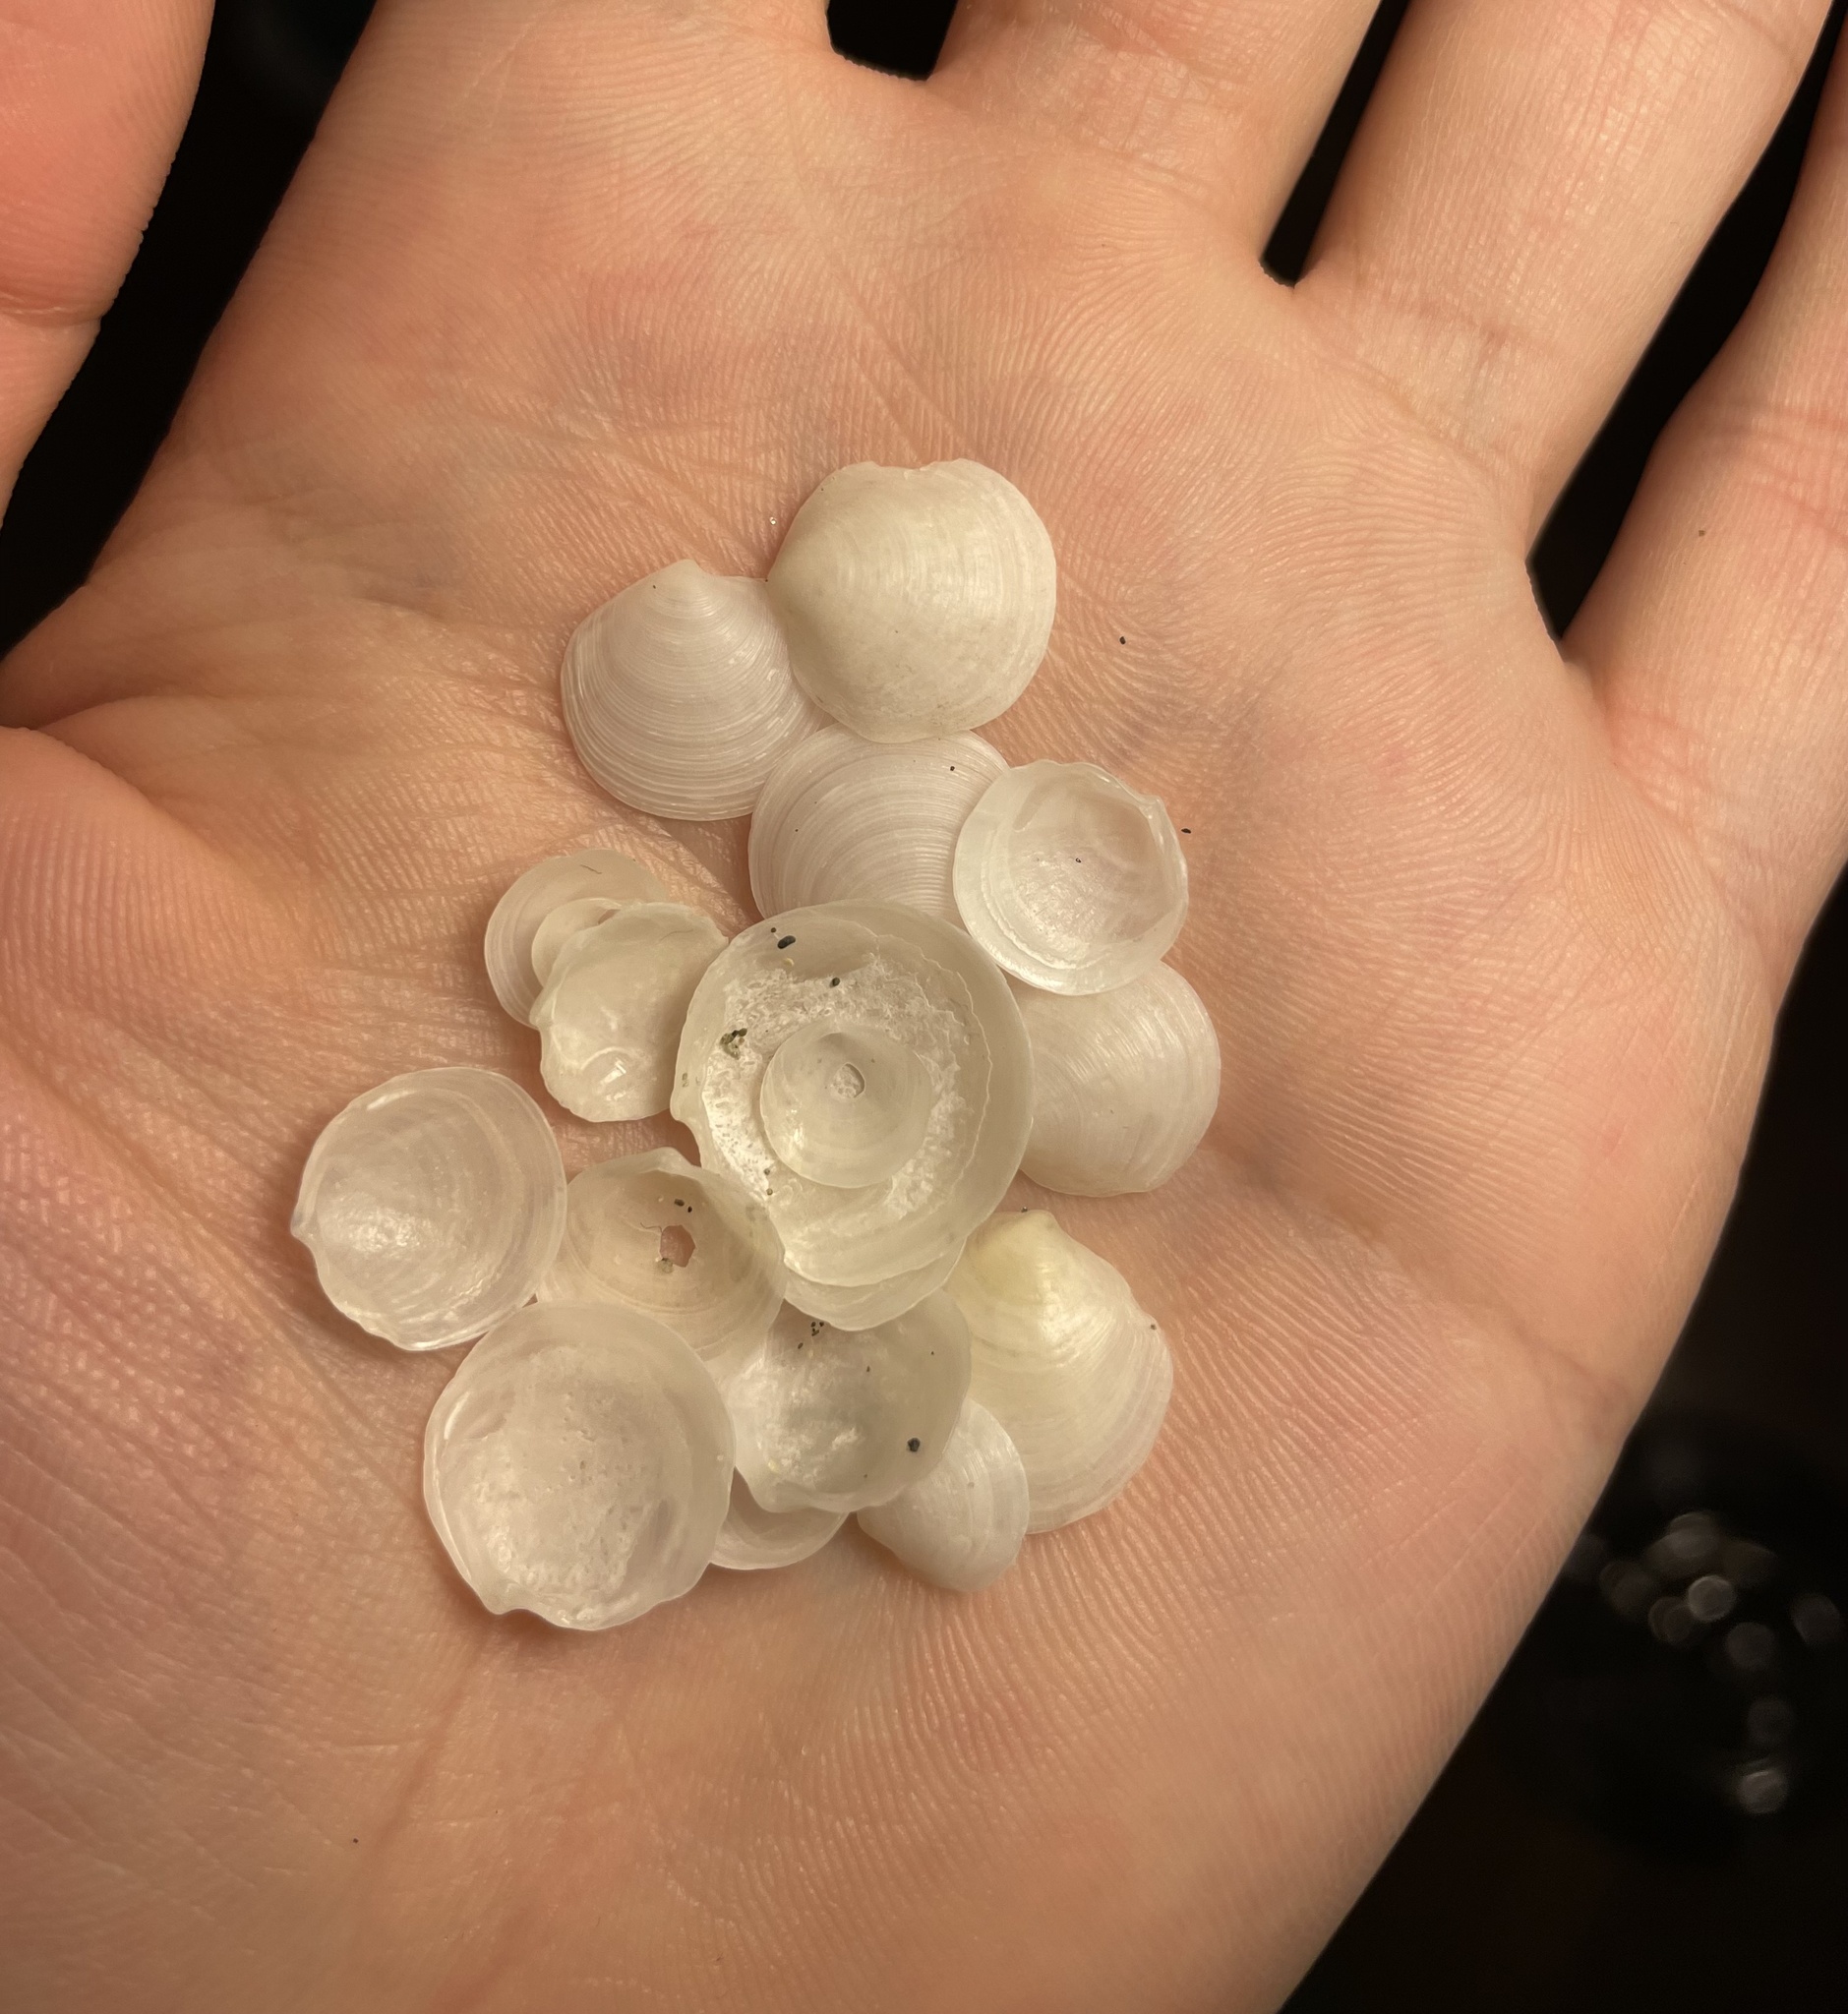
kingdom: Animalia
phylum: Mollusca
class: Bivalvia
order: Lucinida
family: Lucinidae
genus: Loripes
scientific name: Loripes orbiculatus
